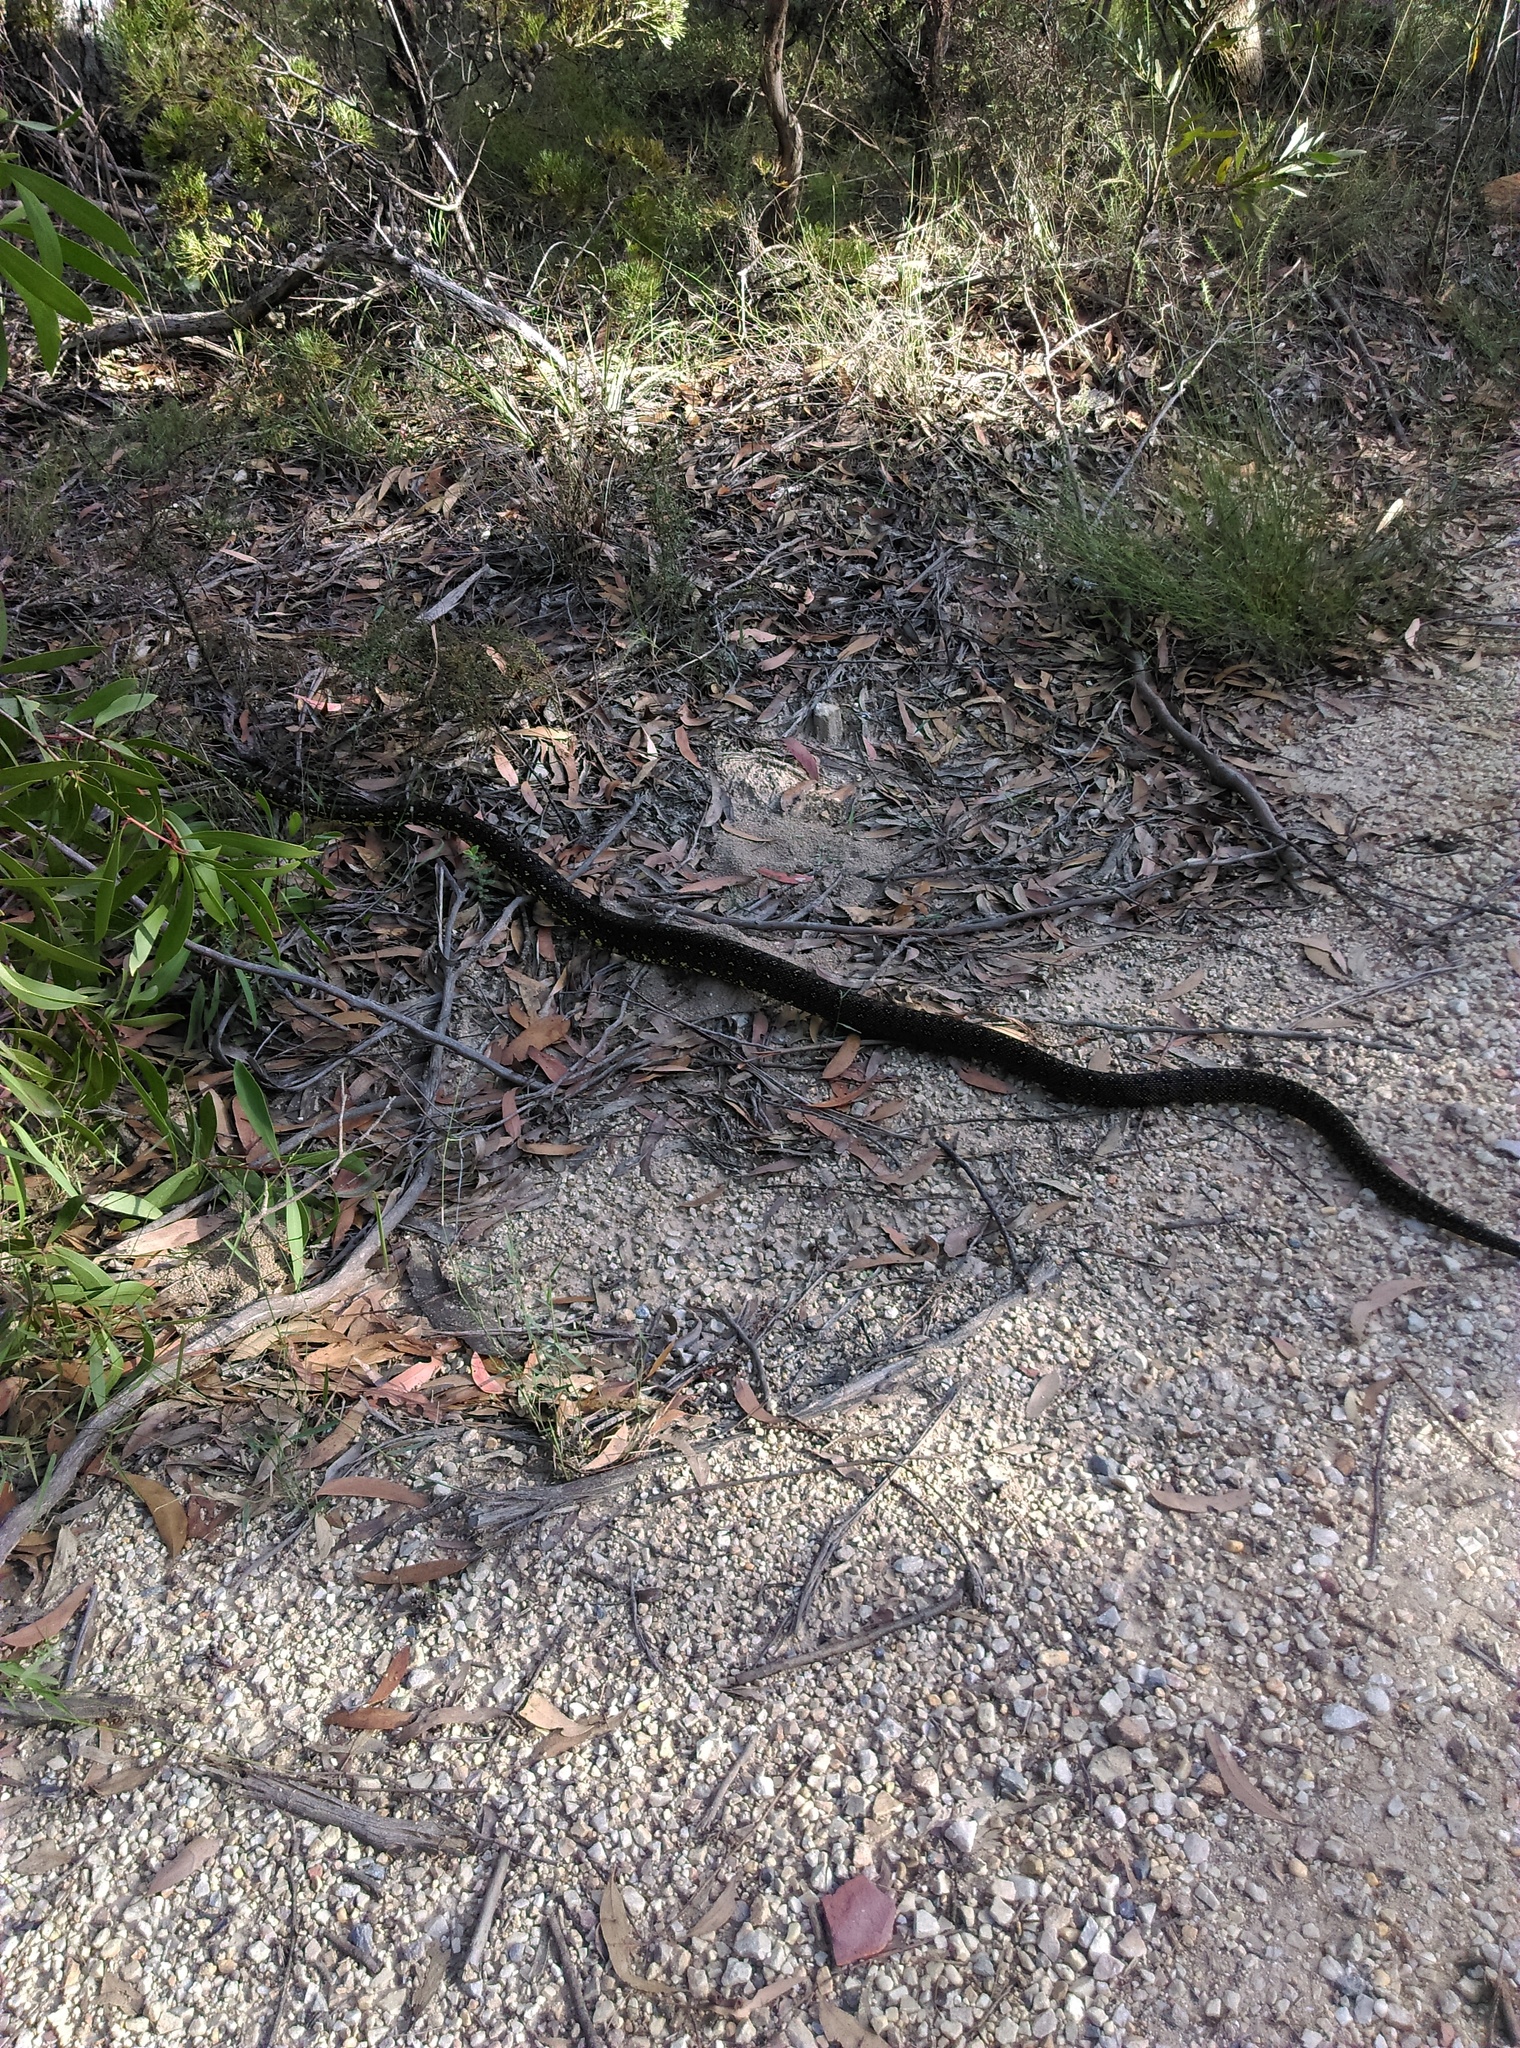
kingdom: Animalia
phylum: Chordata
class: Squamata
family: Pythonidae
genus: Morelia
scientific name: Morelia spilota
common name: Carpet python
